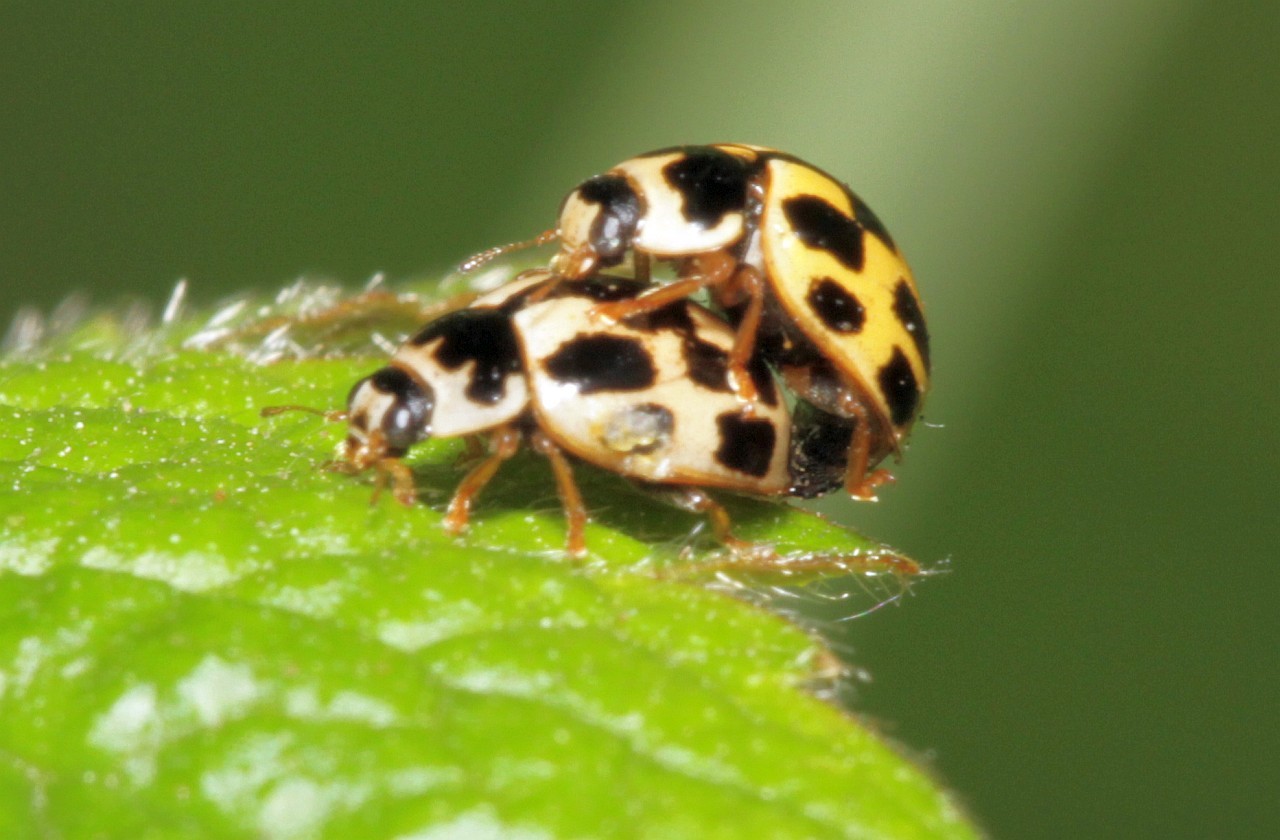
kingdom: Animalia
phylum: Arthropoda
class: Insecta
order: Coleoptera
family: Coccinellidae
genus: Propylaea
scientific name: Propylaea quatuordecimpunctata
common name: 14-spotted ladybird beetle
